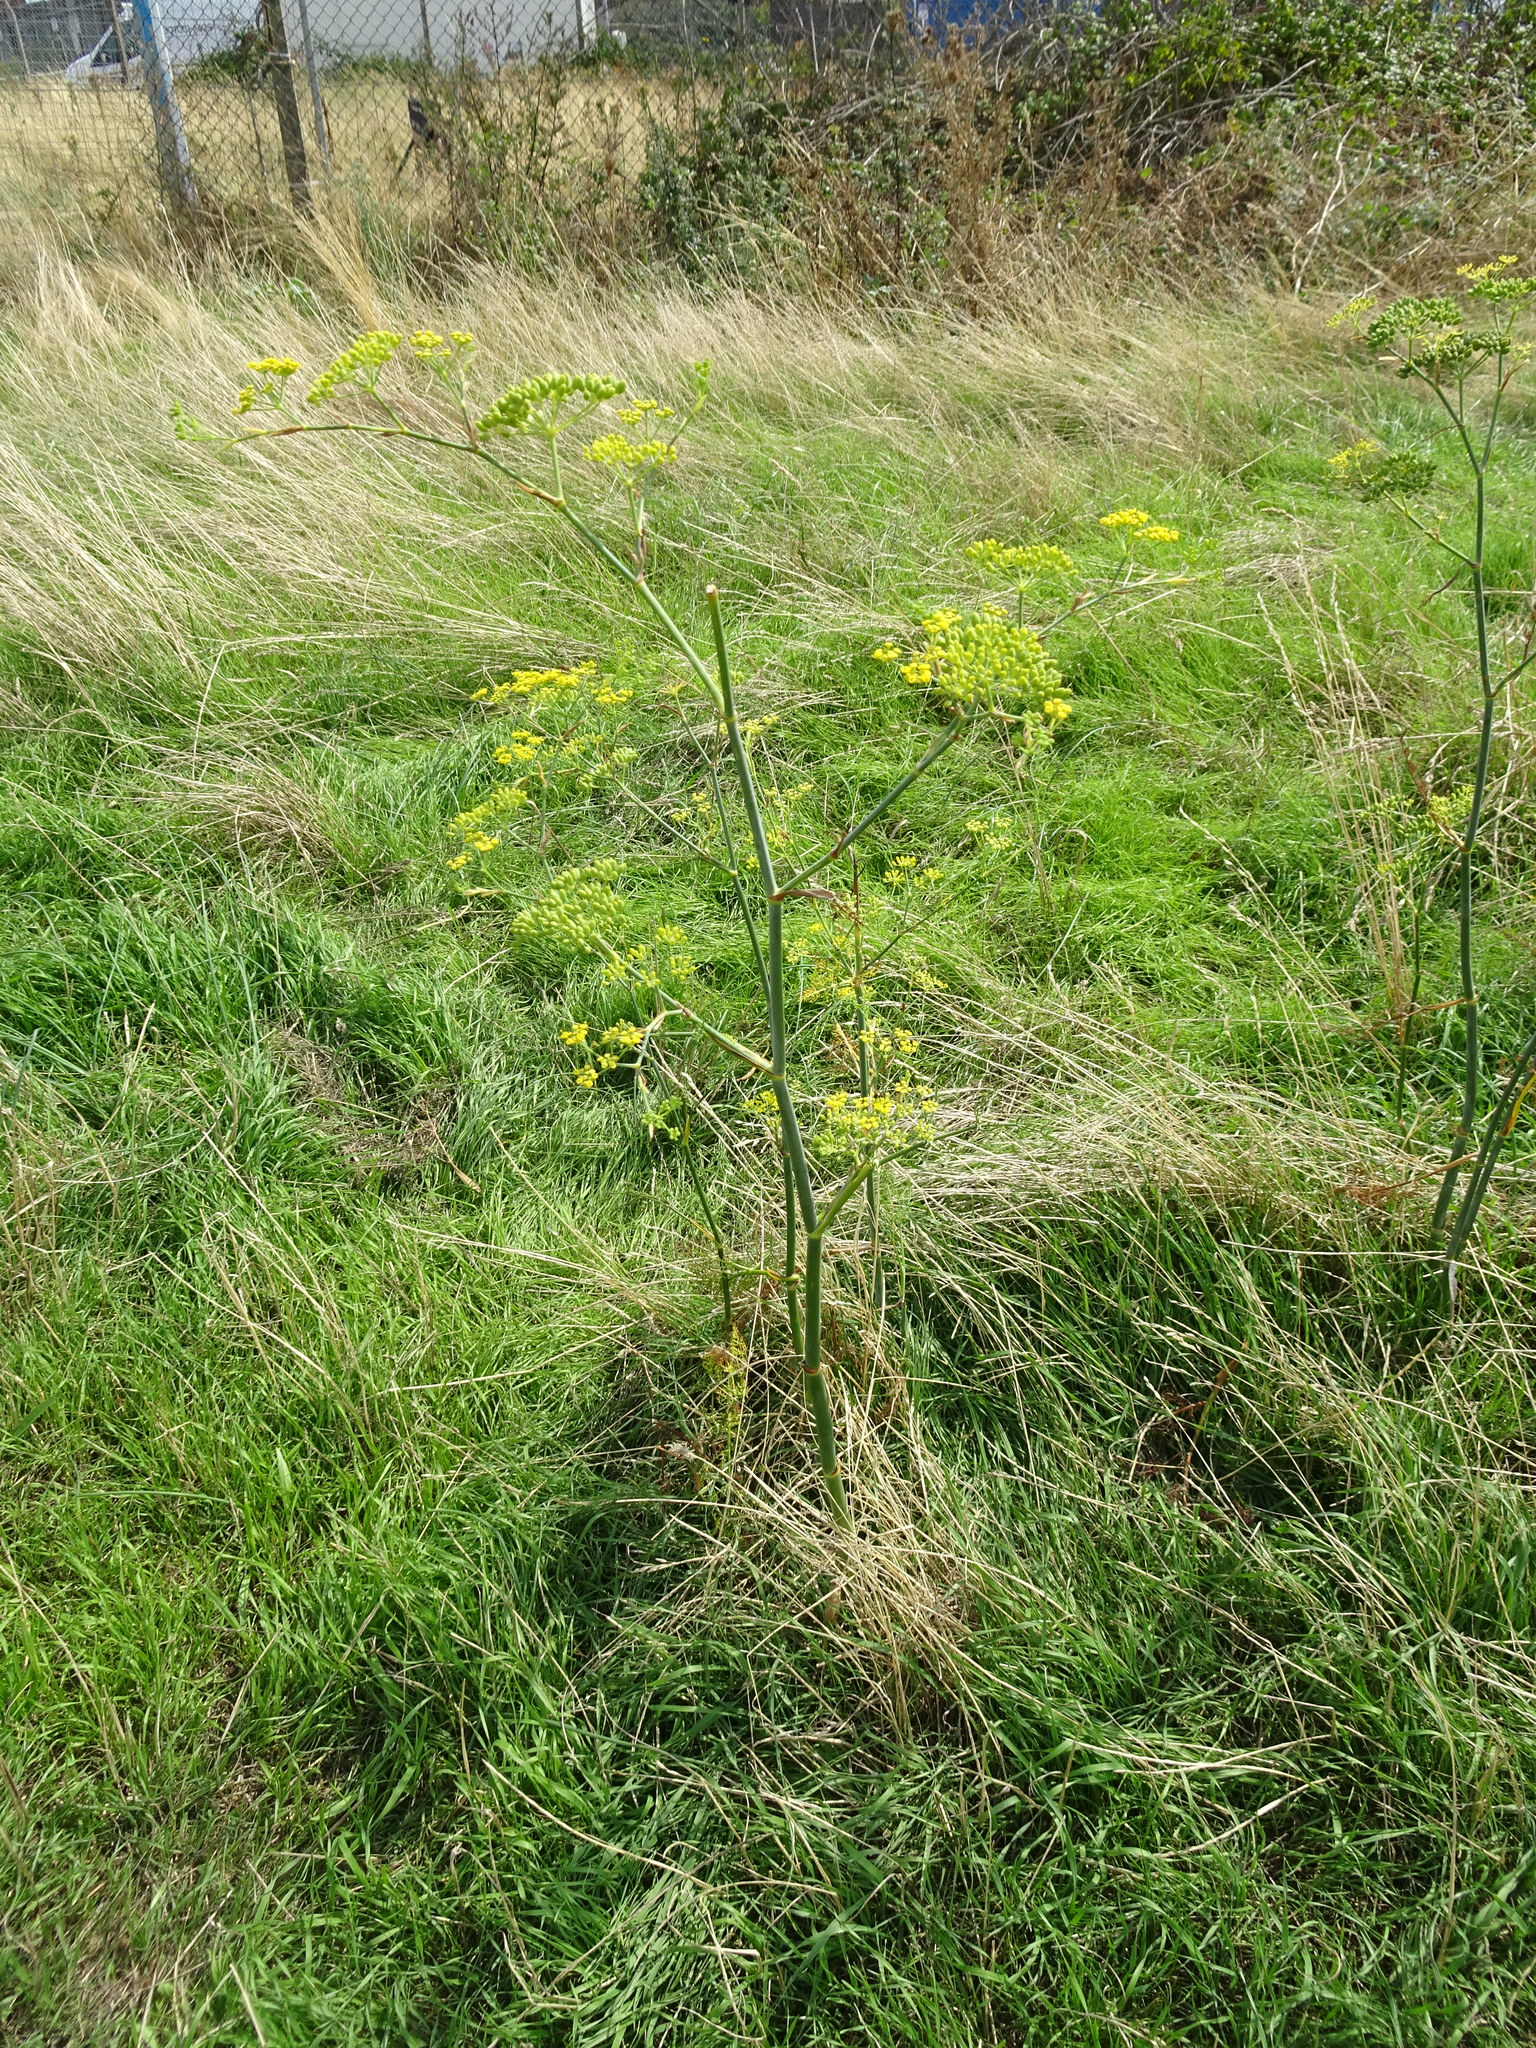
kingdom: Plantae
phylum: Tracheophyta
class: Magnoliopsida
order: Apiales
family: Apiaceae
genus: Foeniculum
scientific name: Foeniculum vulgare
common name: Fennel
